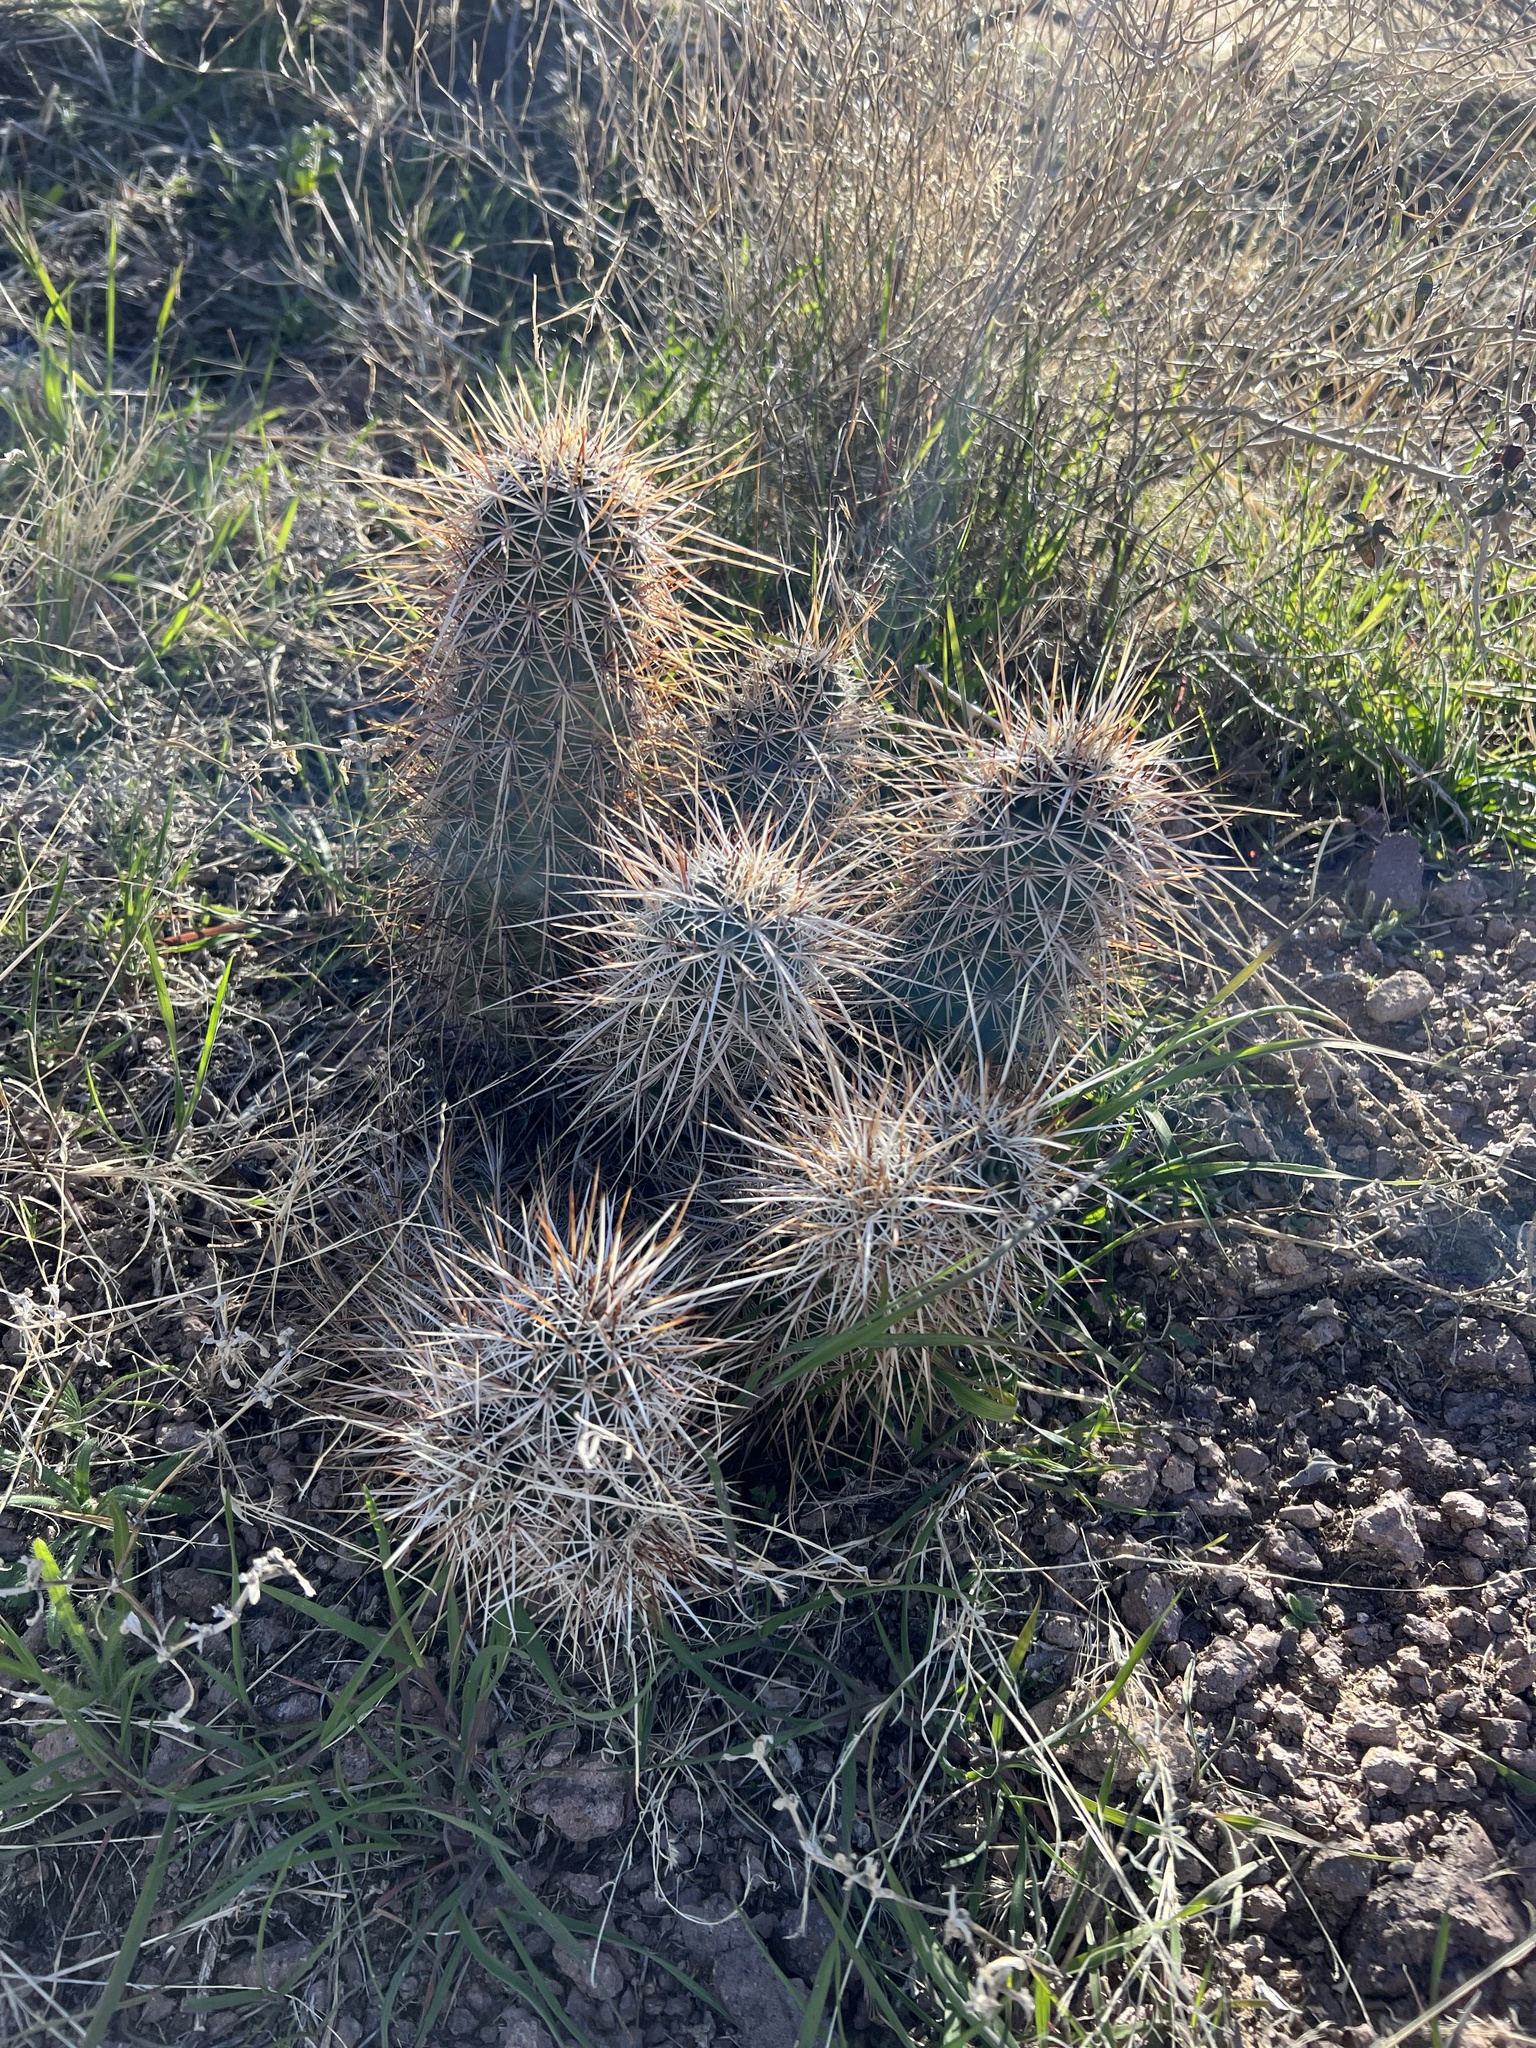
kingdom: Plantae
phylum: Tracheophyta
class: Magnoliopsida
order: Caryophyllales
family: Cactaceae
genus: Echinocereus
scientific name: Echinocereus engelmannii
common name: Engelmann's hedgehog cactus
